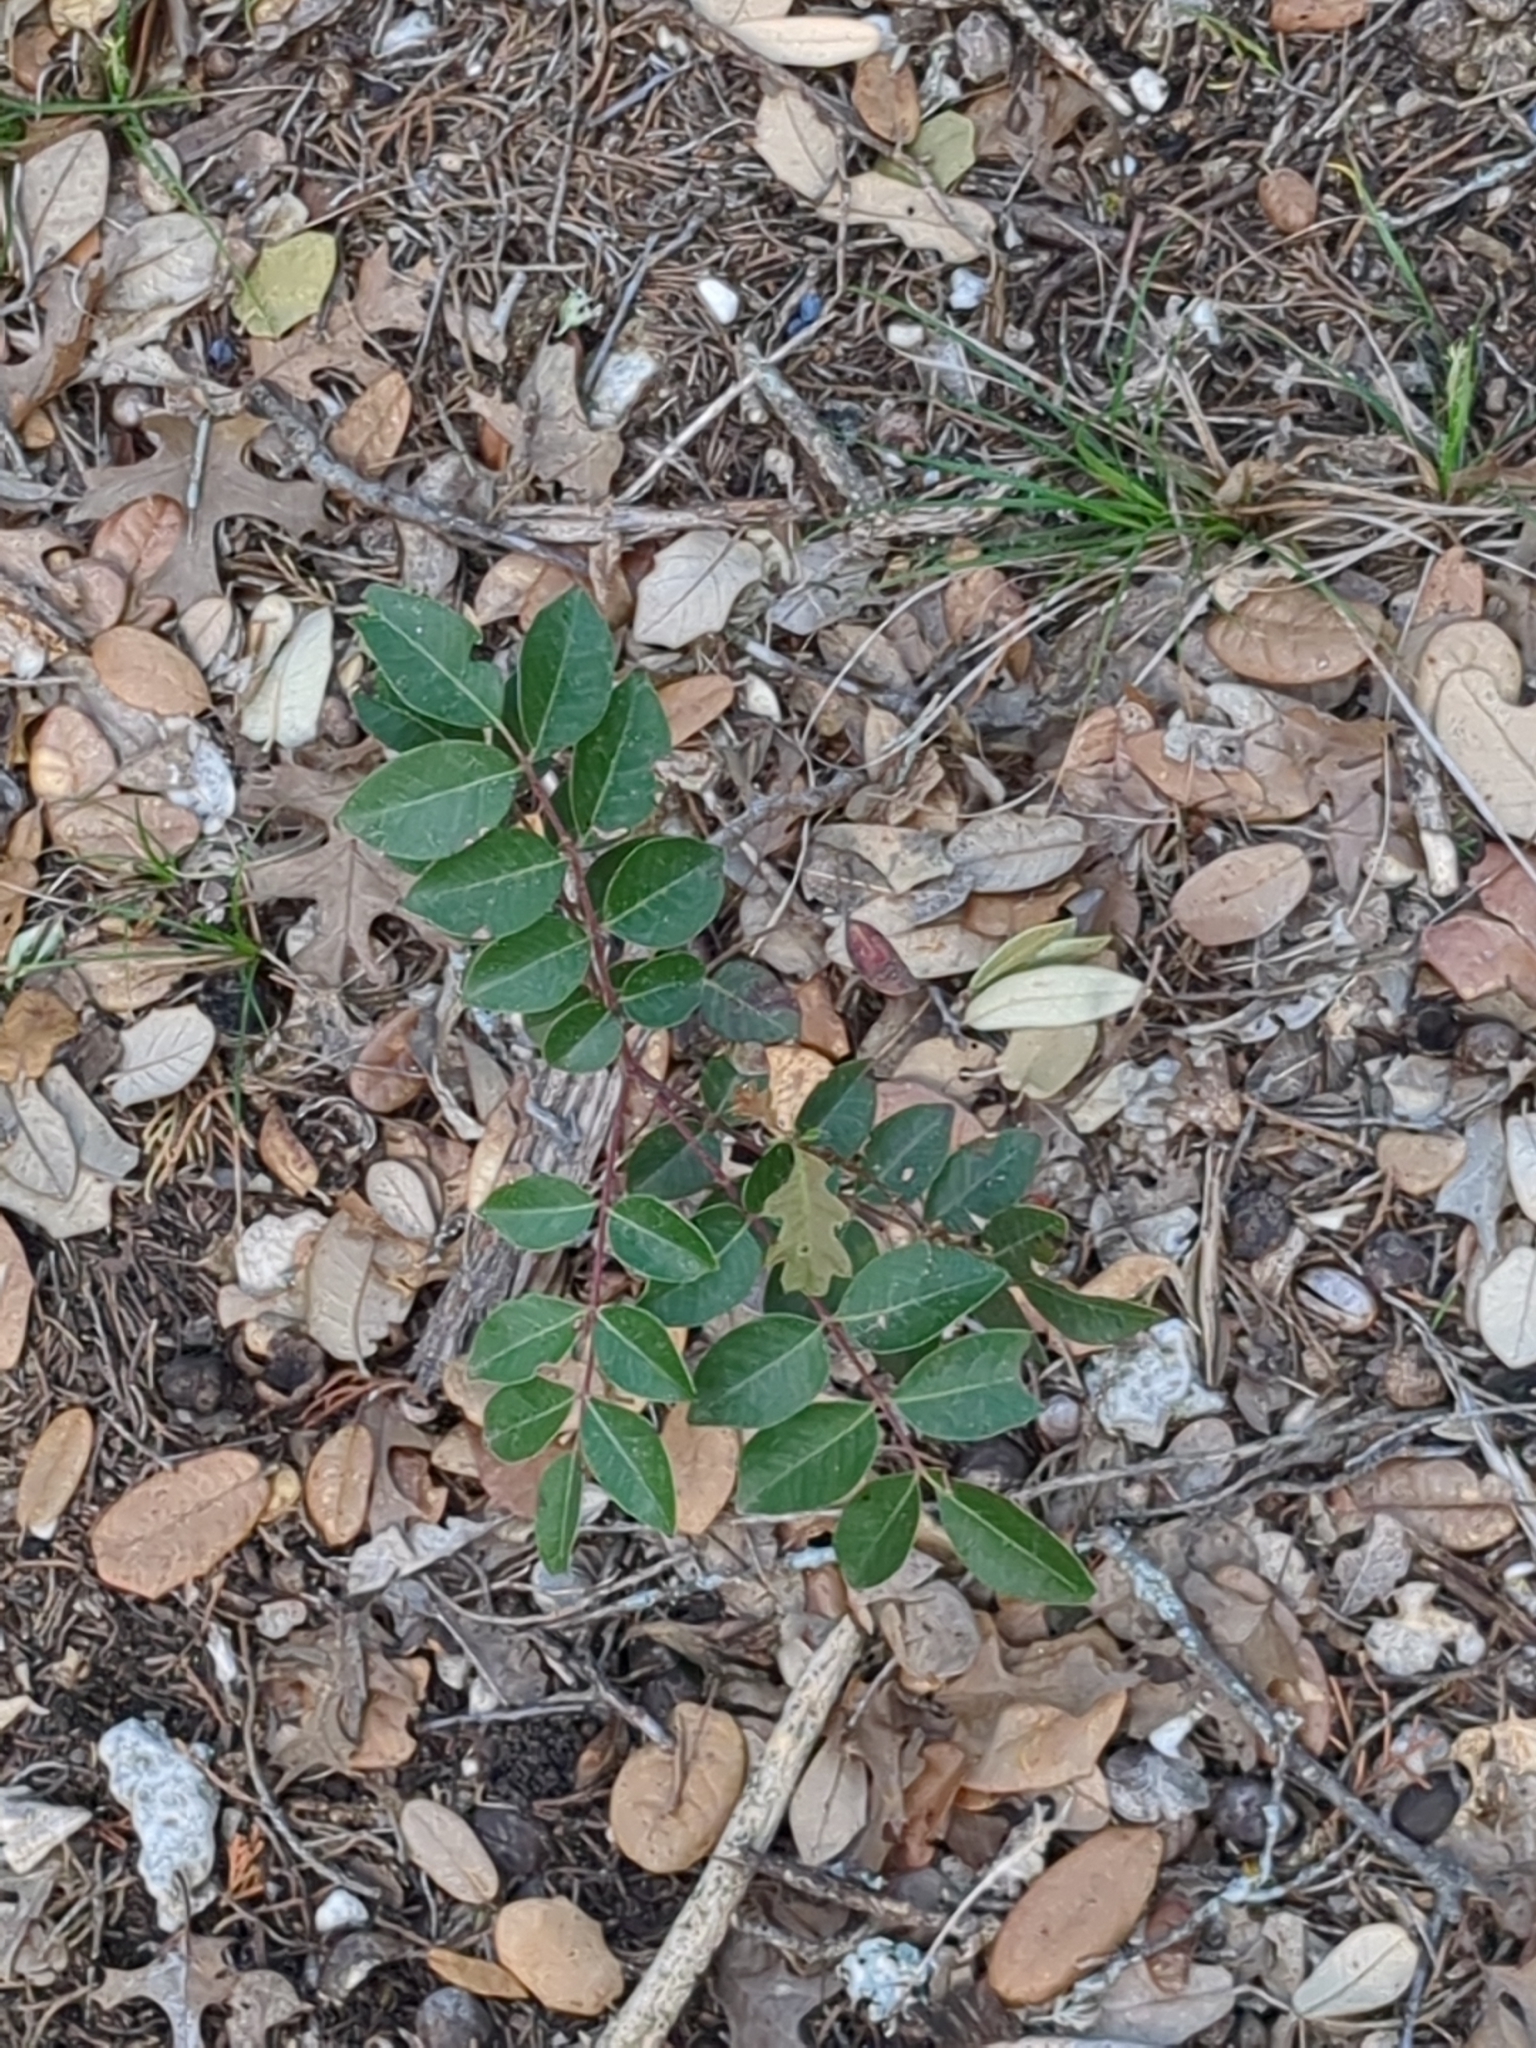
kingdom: Plantae
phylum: Tracheophyta
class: Magnoliopsida
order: Sapindales
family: Anacardiaceae
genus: Rhus
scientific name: Rhus virens
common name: Evergreen sumac
